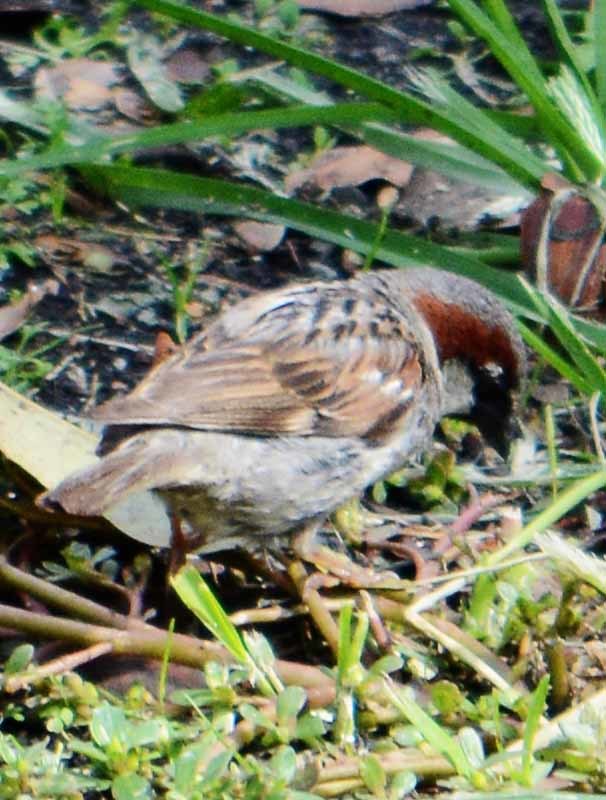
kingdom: Animalia
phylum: Chordata
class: Aves
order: Passeriformes
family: Passeridae
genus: Passer
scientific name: Passer domesticus
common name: House sparrow
